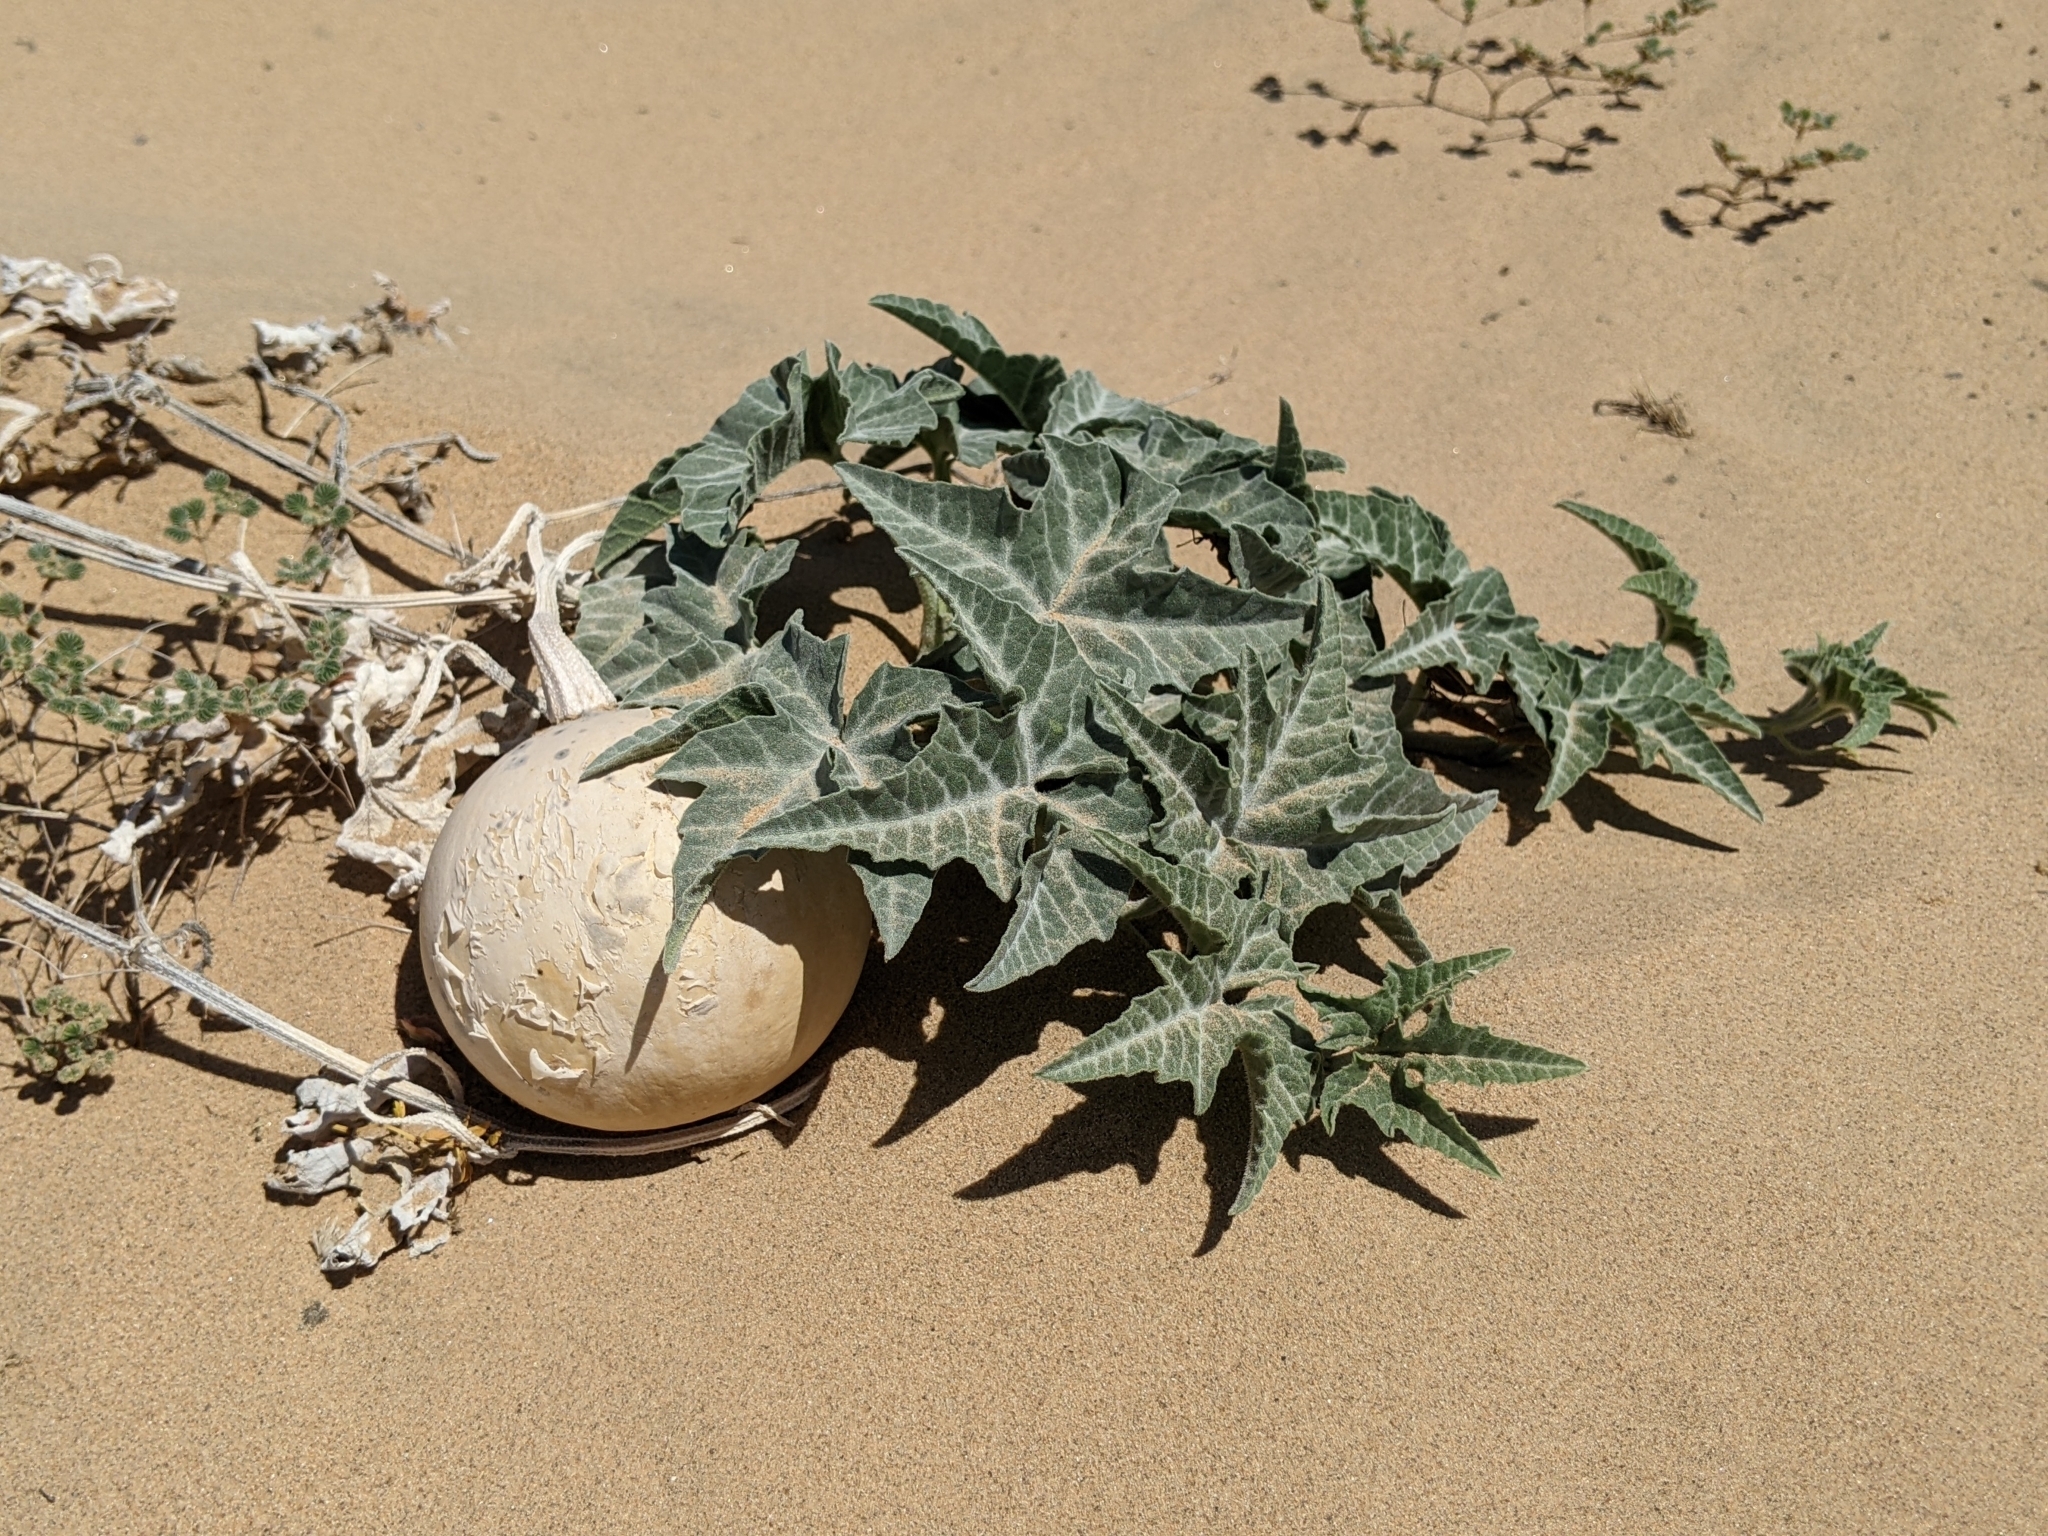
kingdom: Plantae
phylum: Tracheophyta
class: Magnoliopsida
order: Cucurbitales
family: Cucurbitaceae
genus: Cucurbita
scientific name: Cucurbita palmata
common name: Coyote-melon
